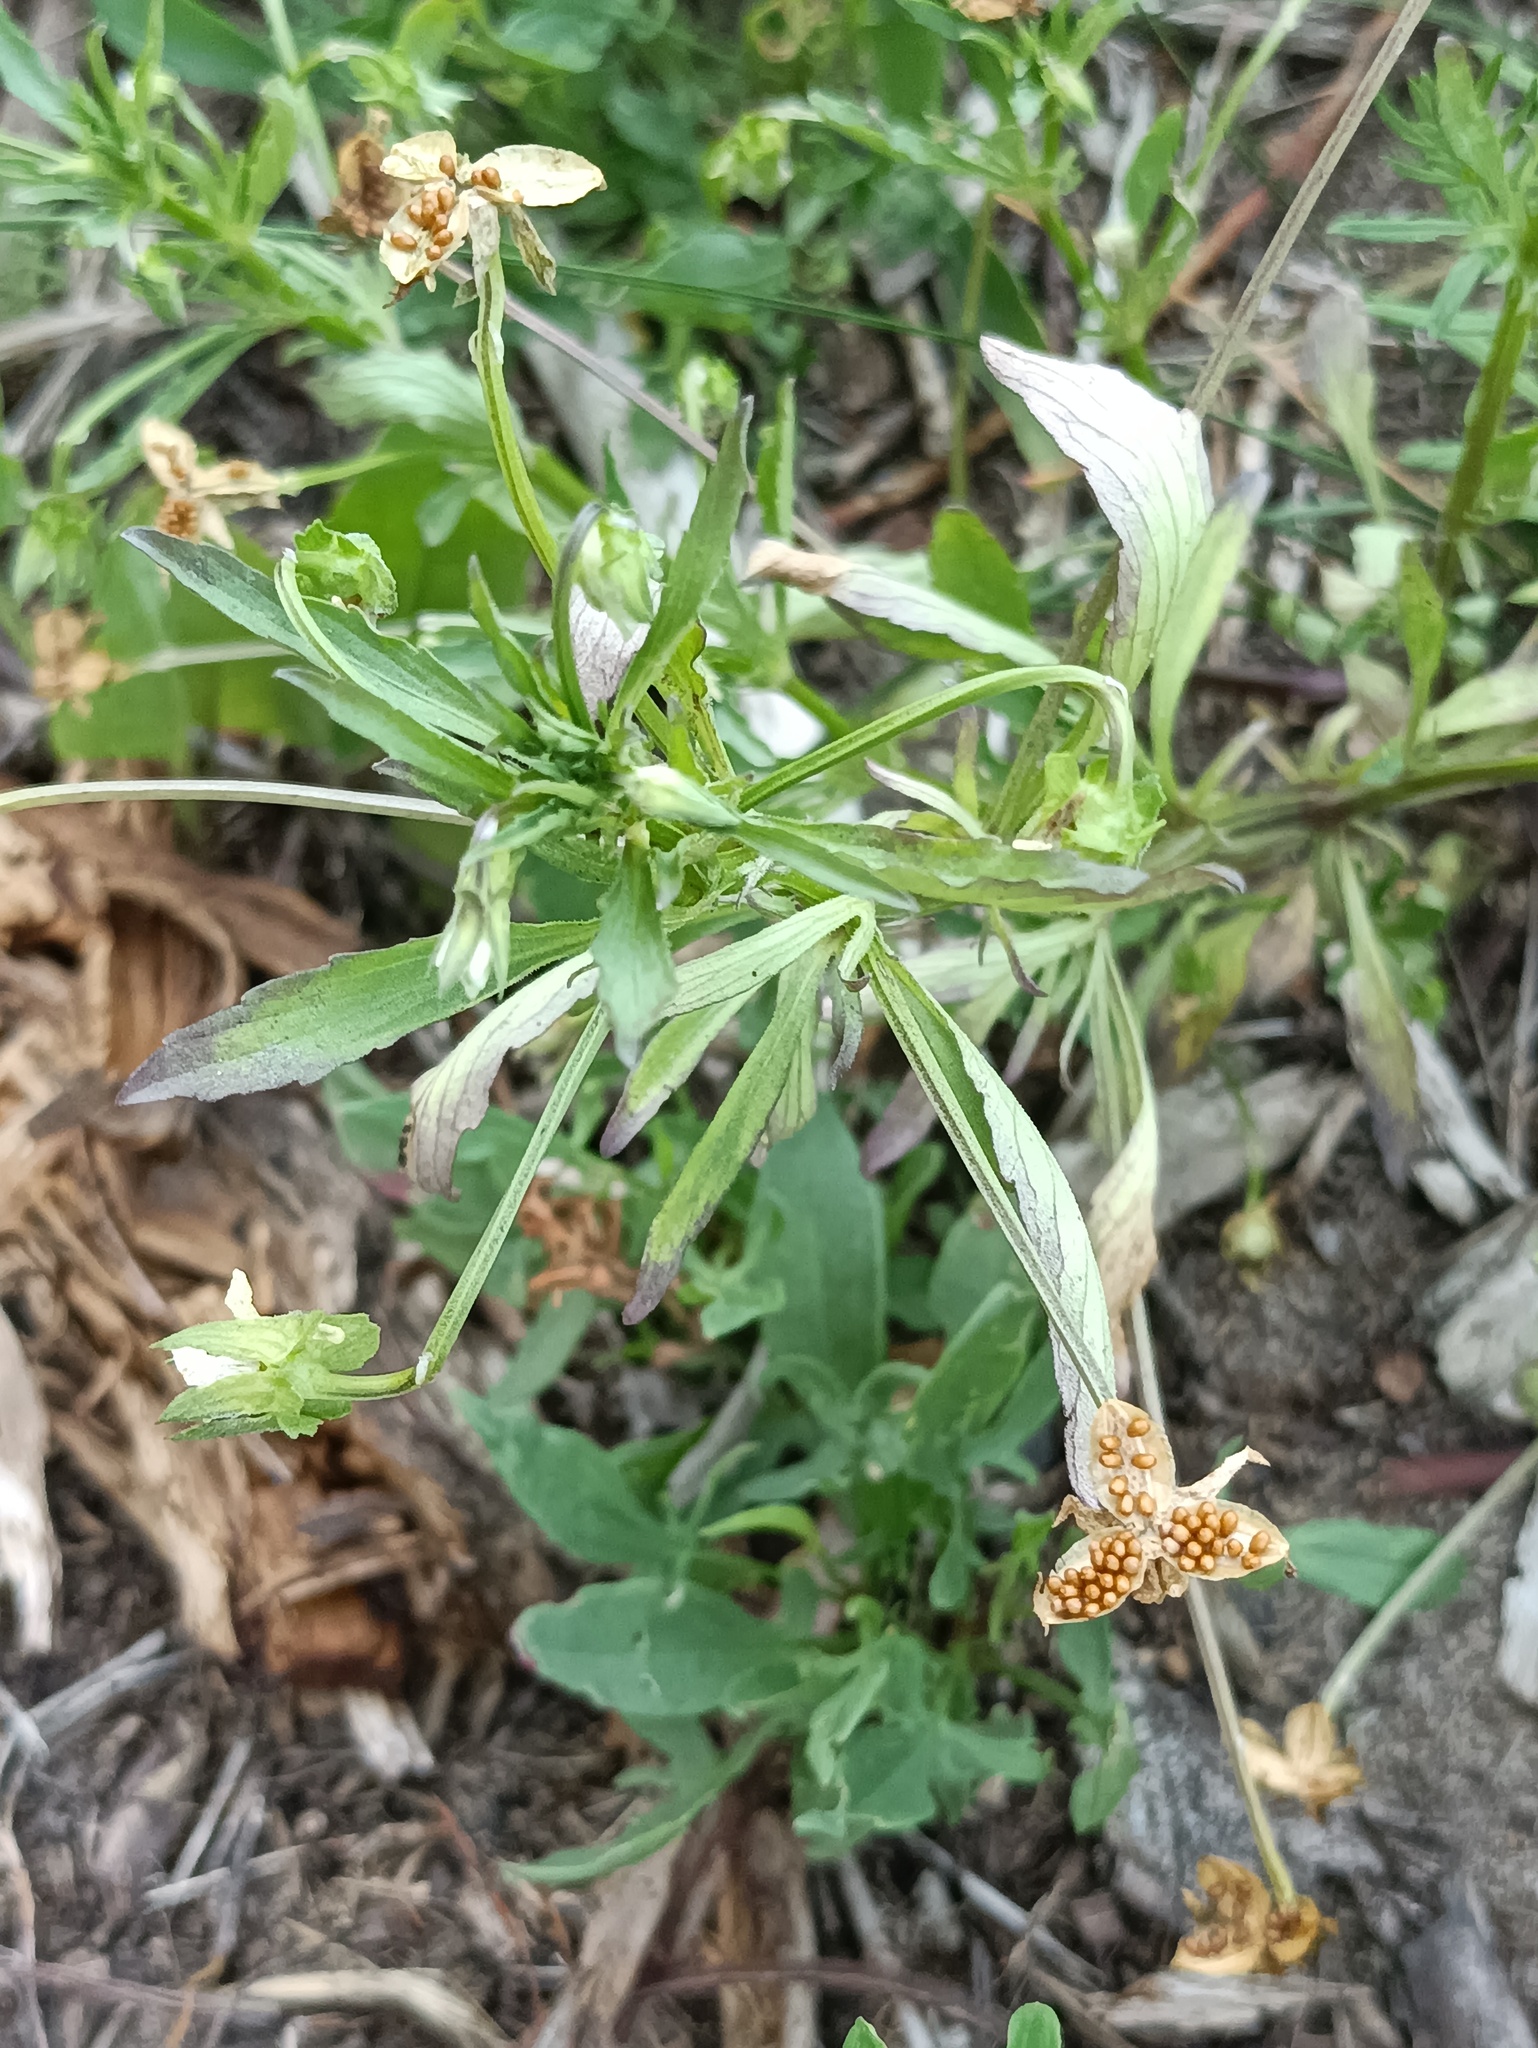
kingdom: Plantae
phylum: Tracheophyta
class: Magnoliopsida
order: Malpighiales
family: Violaceae
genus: Viola
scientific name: Viola arvensis
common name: Field pansy
